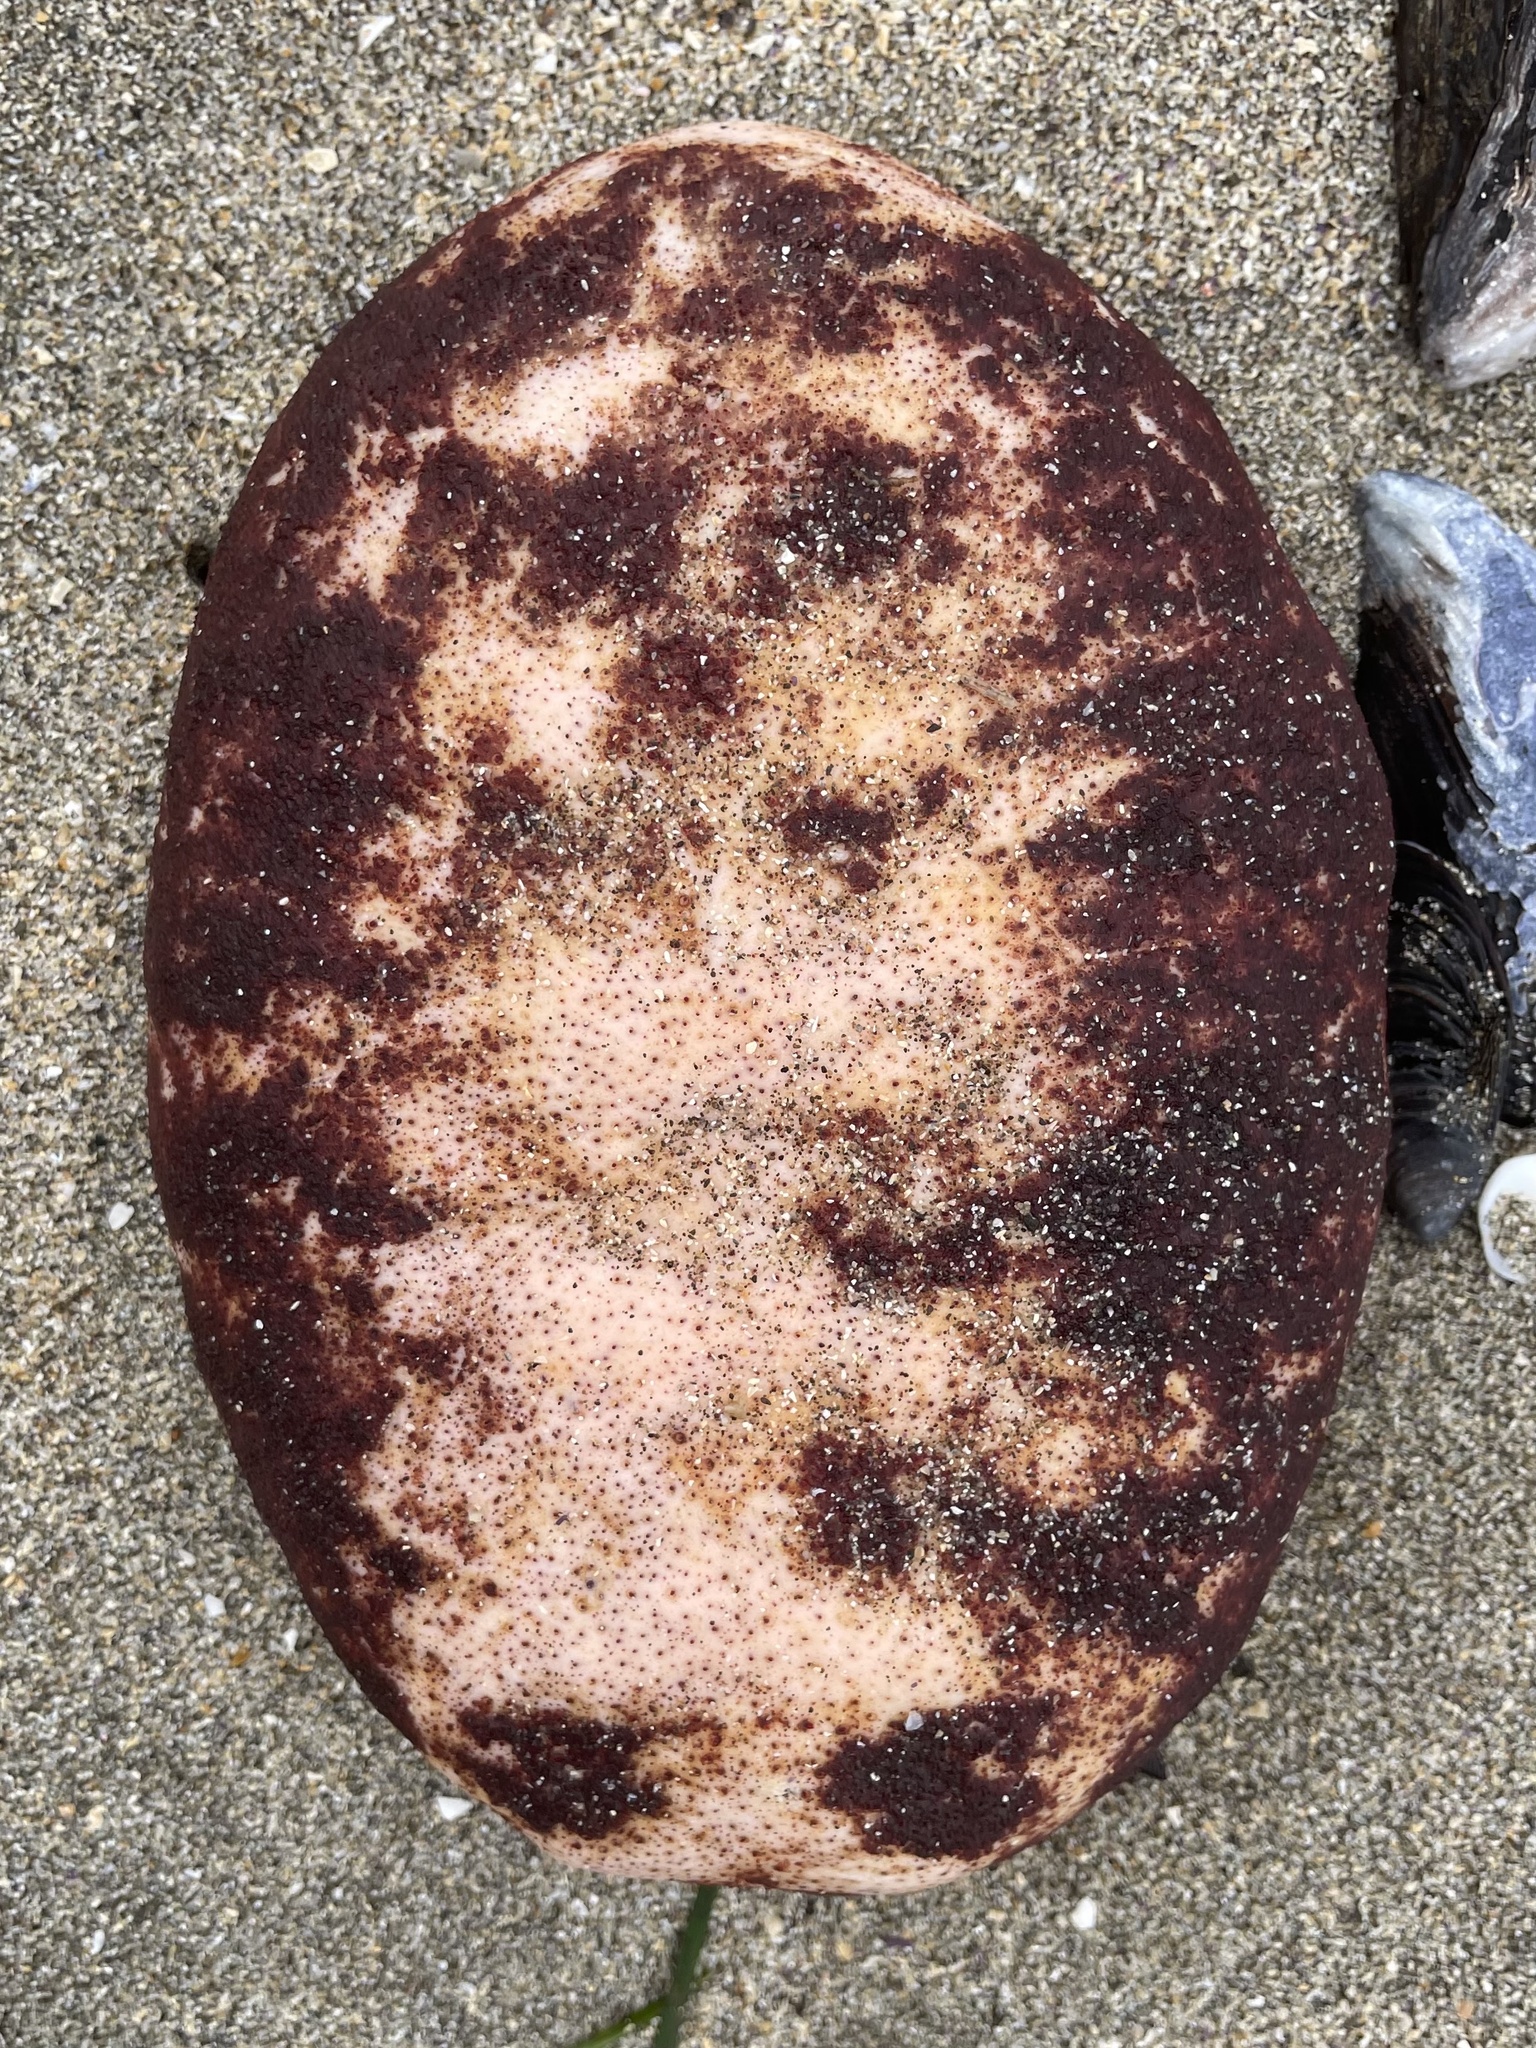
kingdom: Animalia
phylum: Mollusca
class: Polyplacophora
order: Chitonida
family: Acanthochitonidae
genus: Cryptochiton
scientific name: Cryptochiton stelleri
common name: Giant pacific chiton
